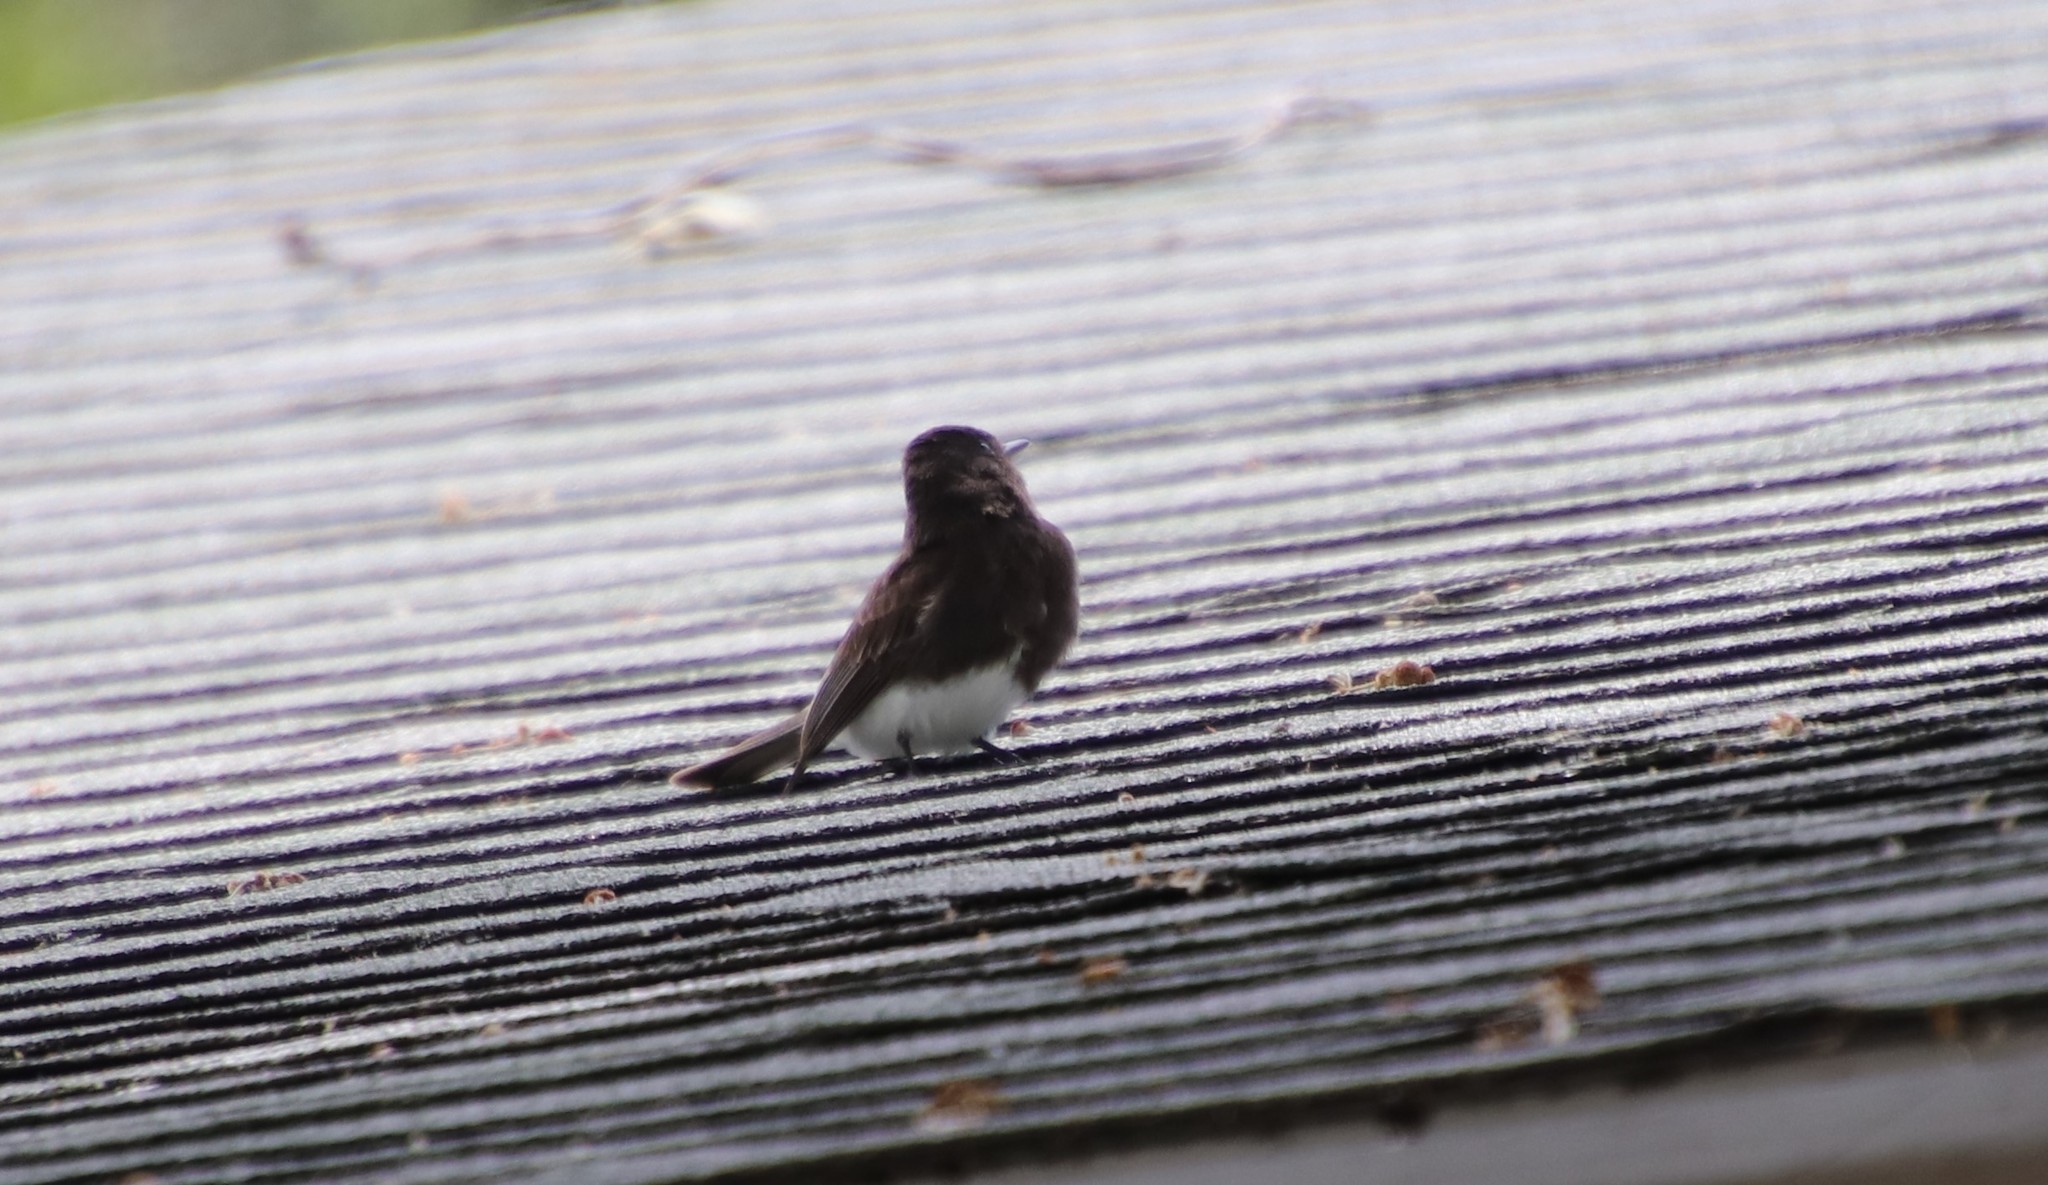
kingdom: Animalia
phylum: Chordata
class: Aves
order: Passeriformes
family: Tyrannidae
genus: Sayornis
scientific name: Sayornis nigricans
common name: Black phoebe
